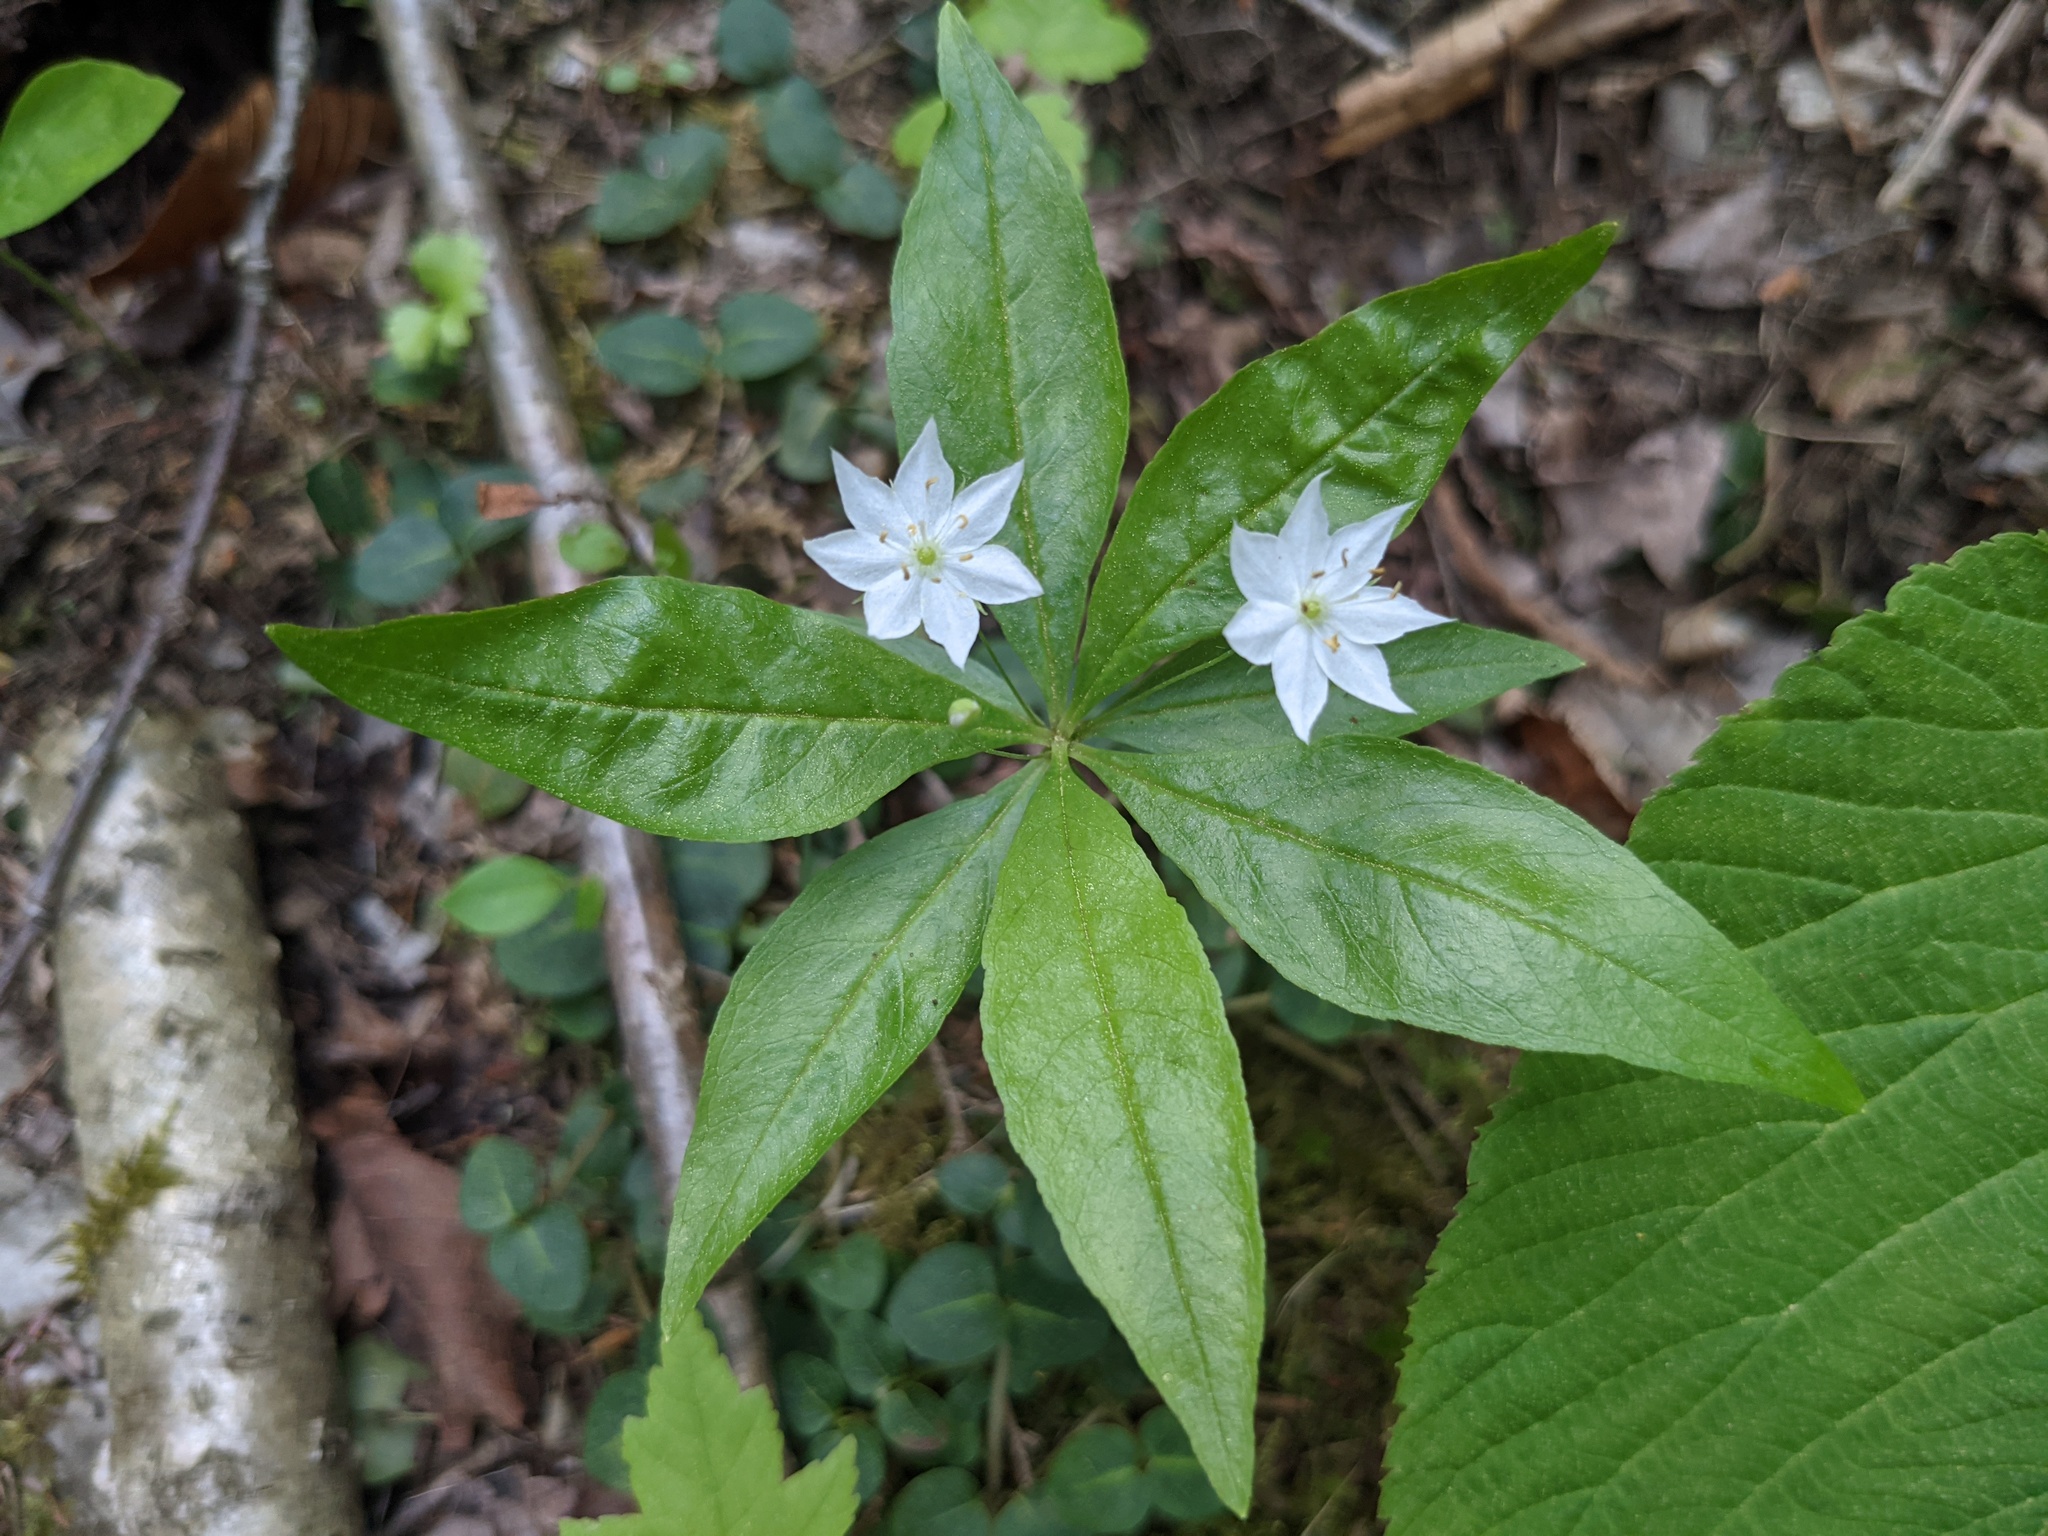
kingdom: Plantae
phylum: Tracheophyta
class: Magnoliopsida
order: Ericales
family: Primulaceae
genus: Lysimachia
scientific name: Lysimachia borealis
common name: American starflower
